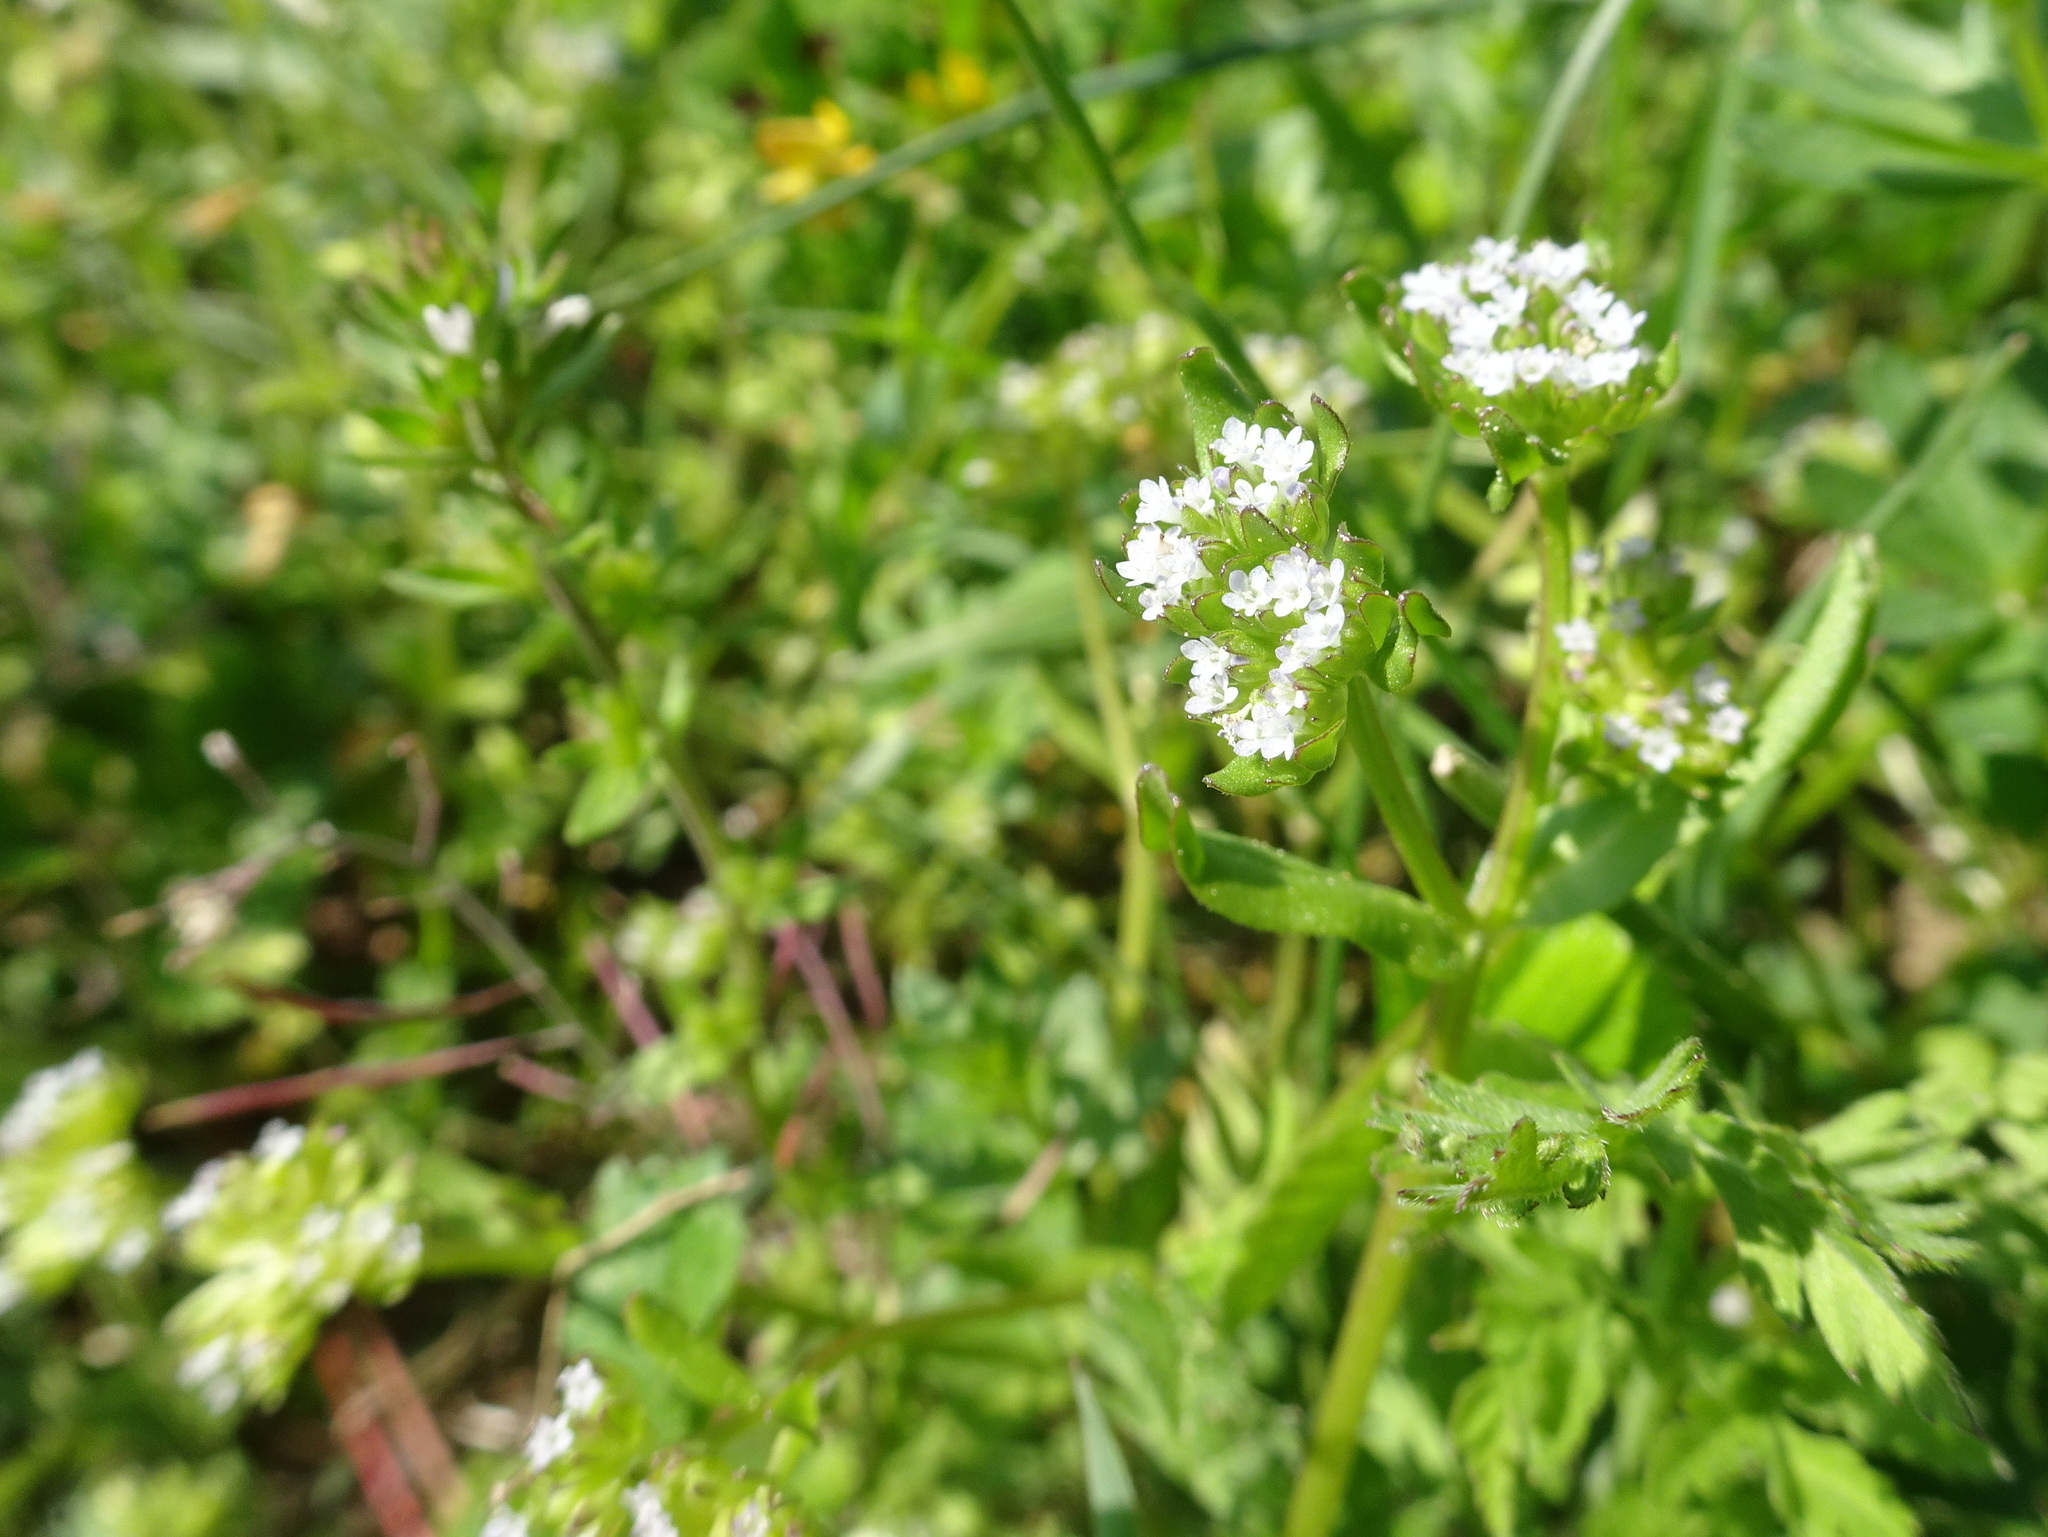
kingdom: Plantae
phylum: Tracheophyta
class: Magnoliopsida
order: Dipsacales
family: Caprifoliaceae
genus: Valerianella
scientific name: Valerianella locusta
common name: Common cornsalad
